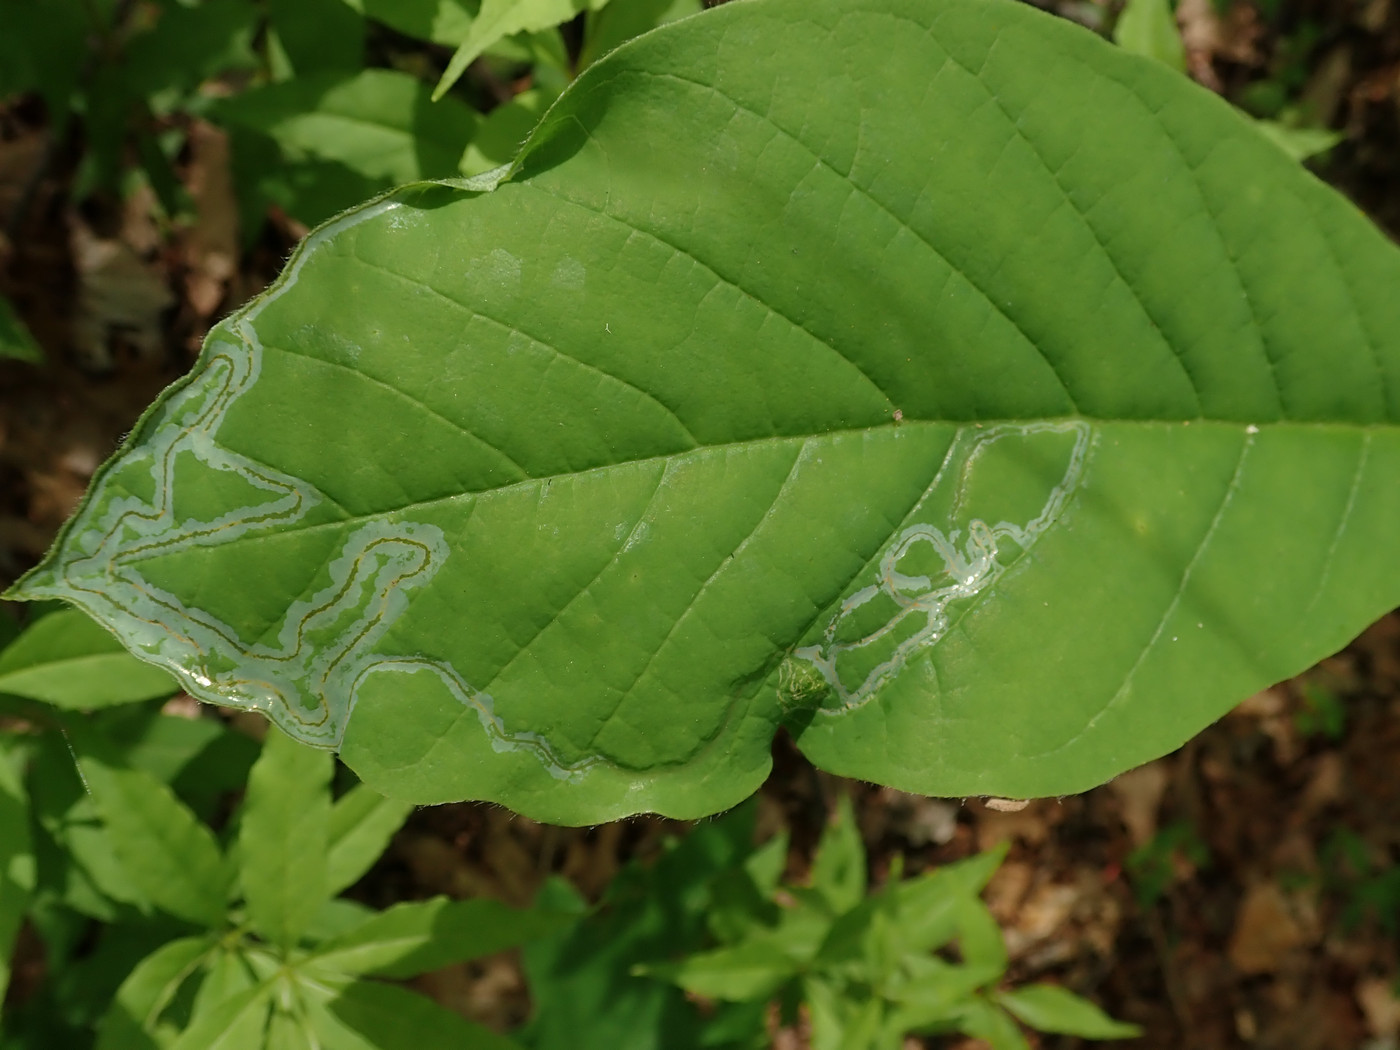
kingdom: Animalia
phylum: Arthropoda
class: Insecta
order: Lepidoptera
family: Gracillariidae
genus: Phyllocnistis
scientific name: Phyllocnistis liriodendronella
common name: Tulip tree leaf miner
